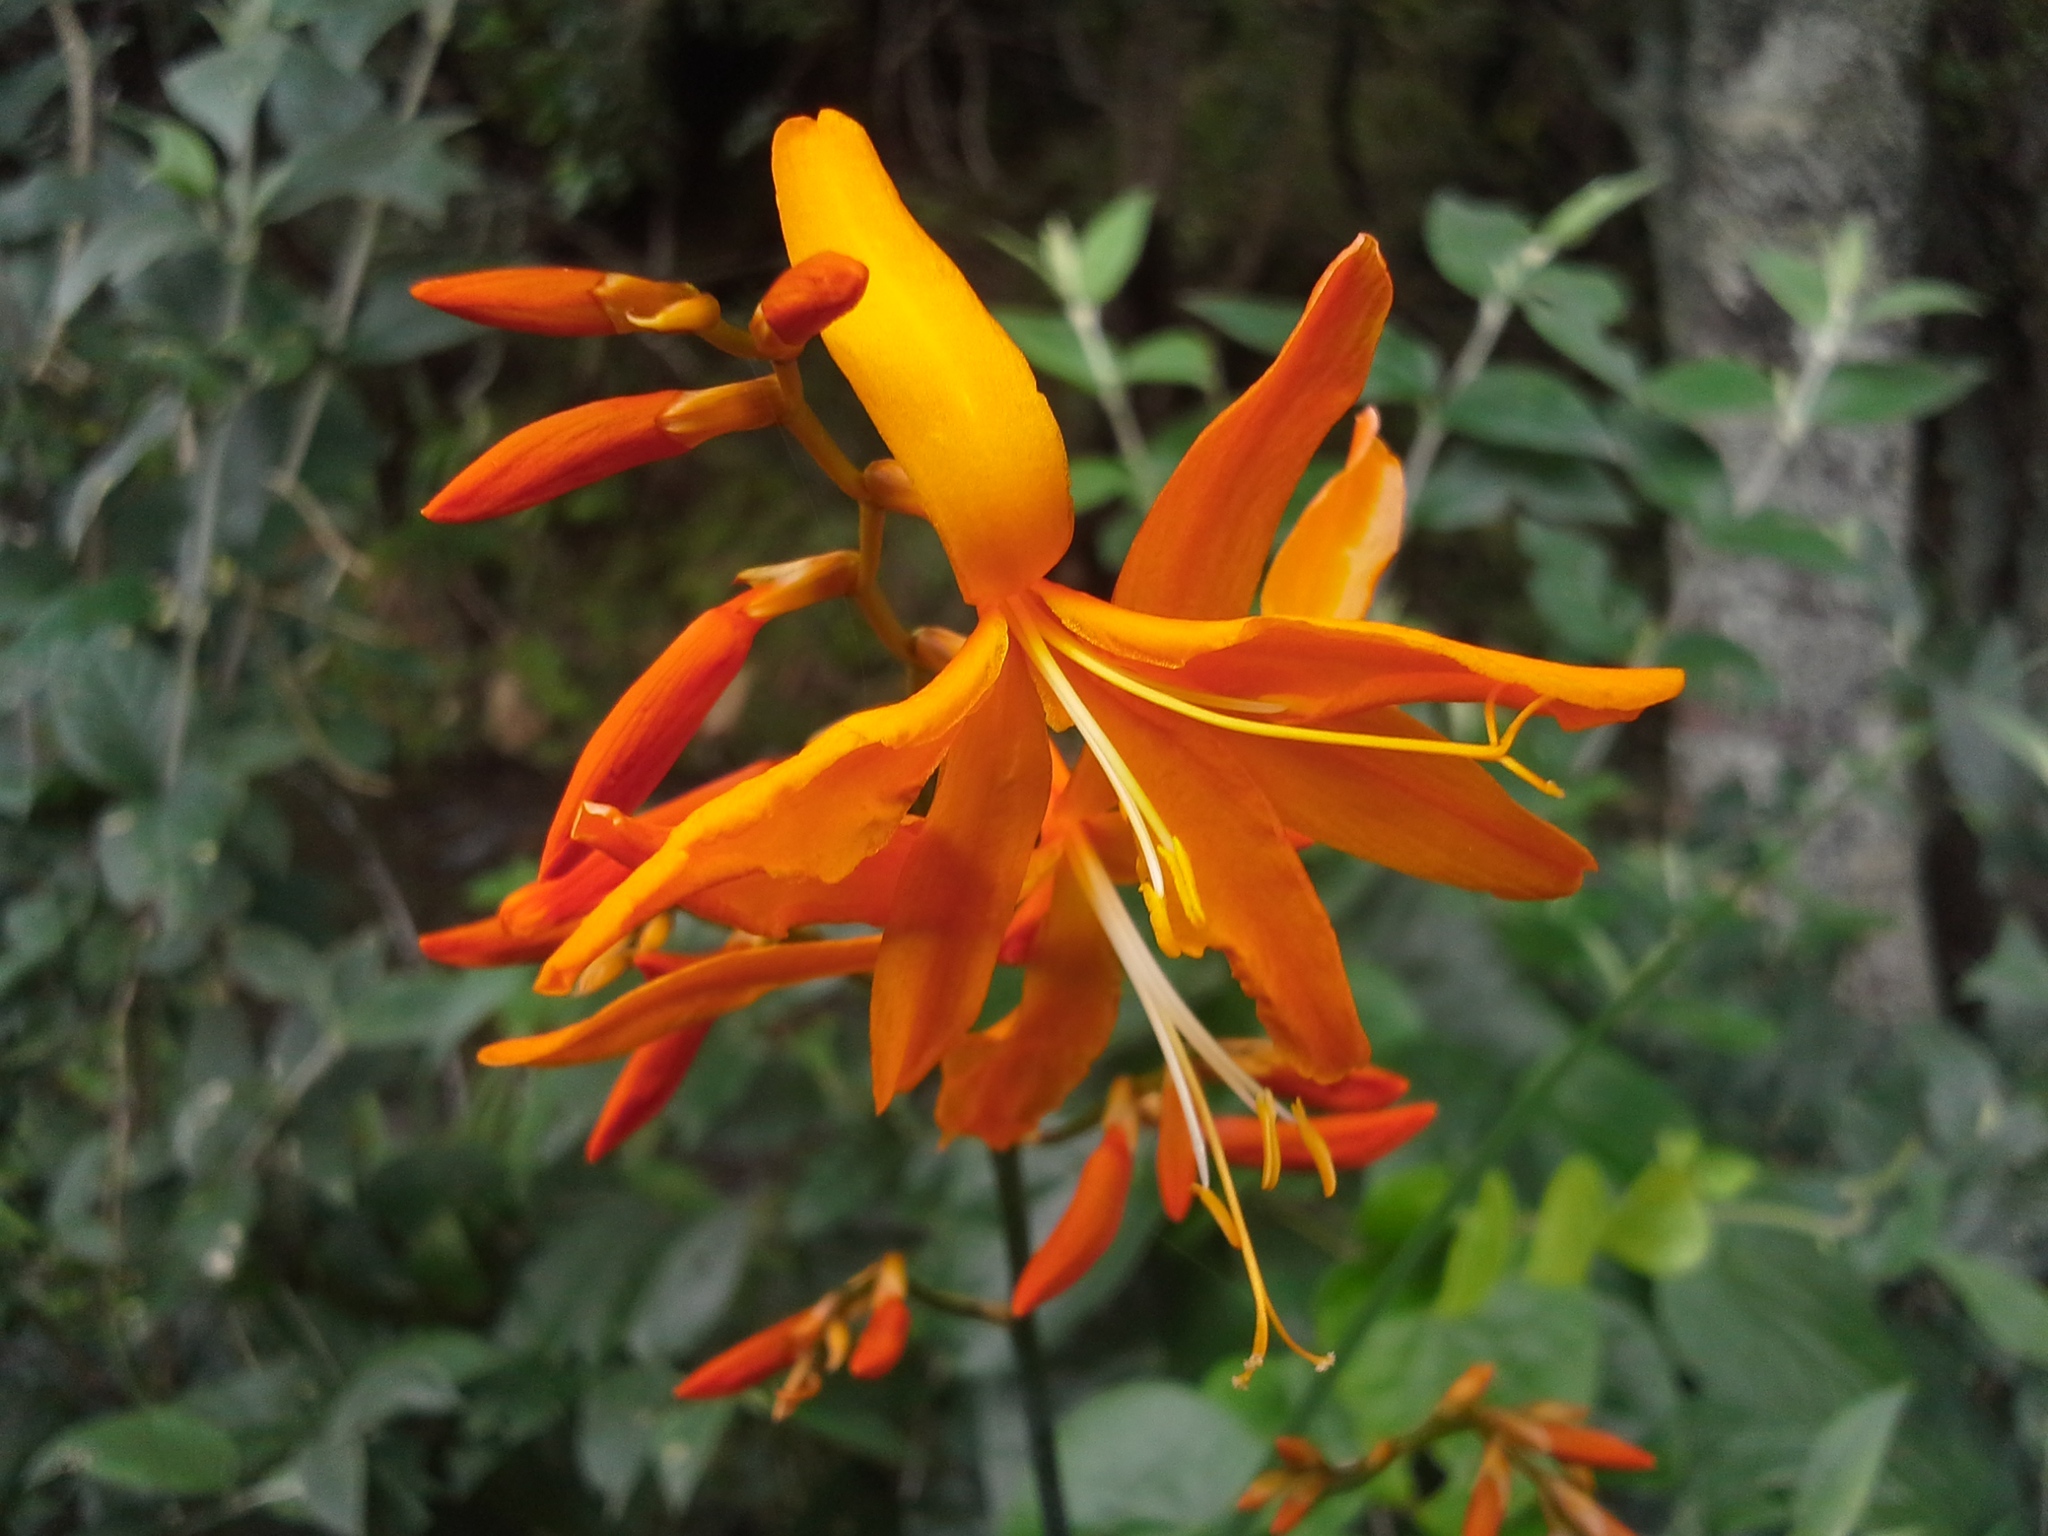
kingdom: Plantae
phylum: Tracheophyta
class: Liliopsida
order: Asparagales
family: Iridaceae
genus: Crocosmia
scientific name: Crocosmia aurea
